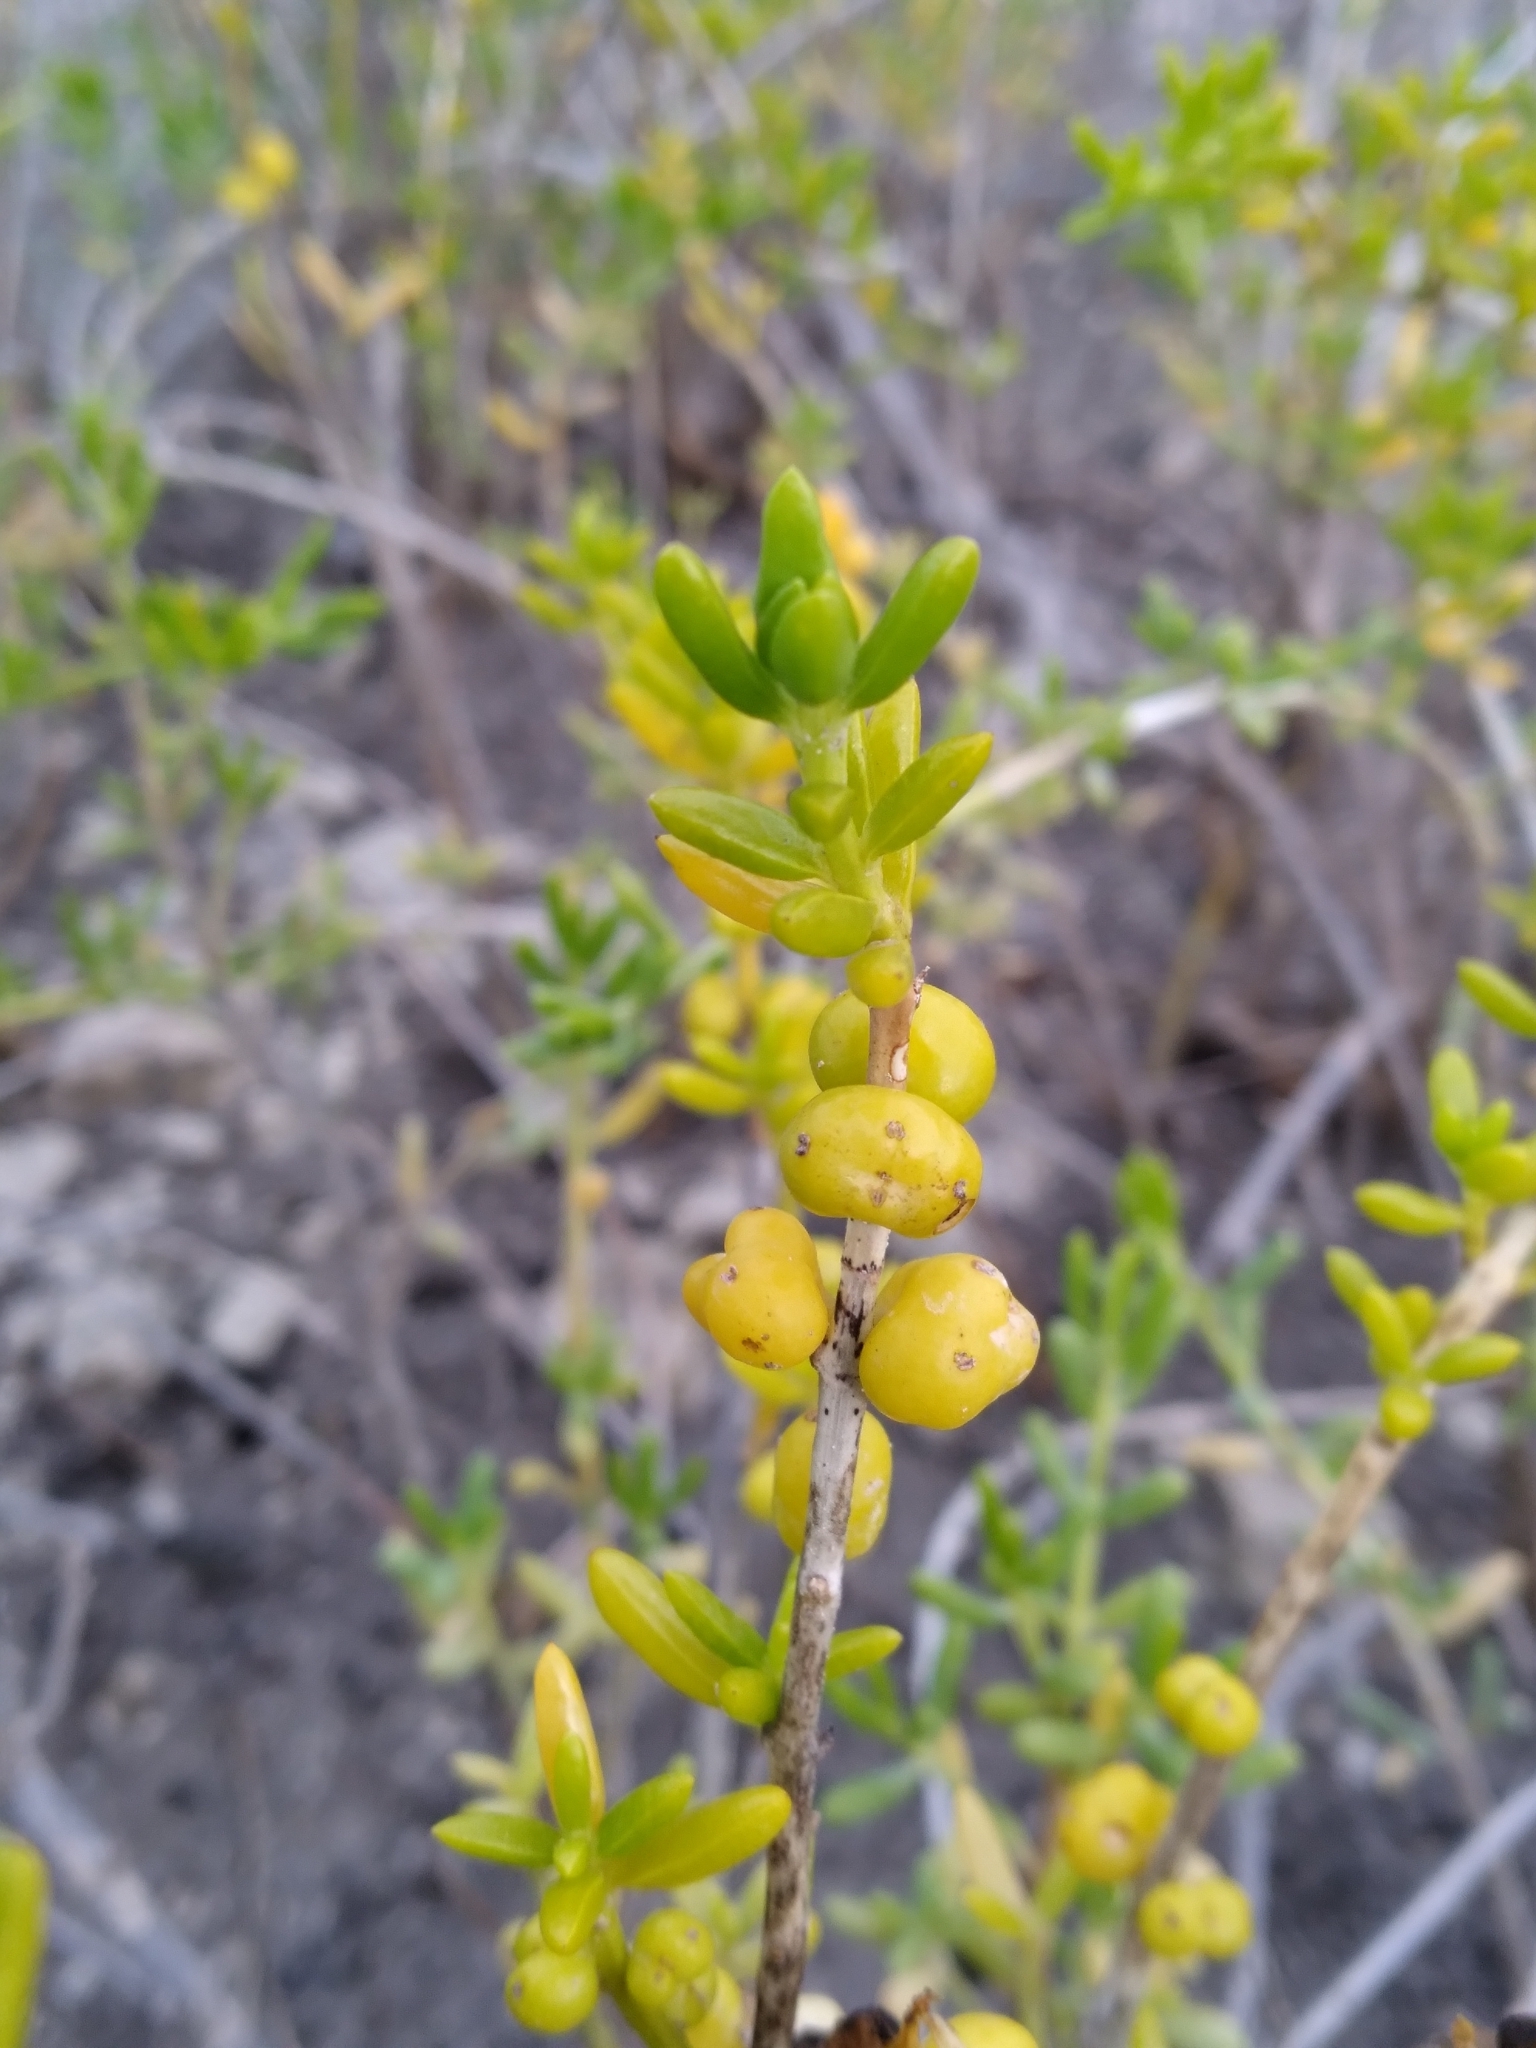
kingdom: Plantae
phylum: Tracheophyta
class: Magnoliopsida
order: Brassicales
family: Bataceae
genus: Batis
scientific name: Batis maritima
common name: Turtleweed
